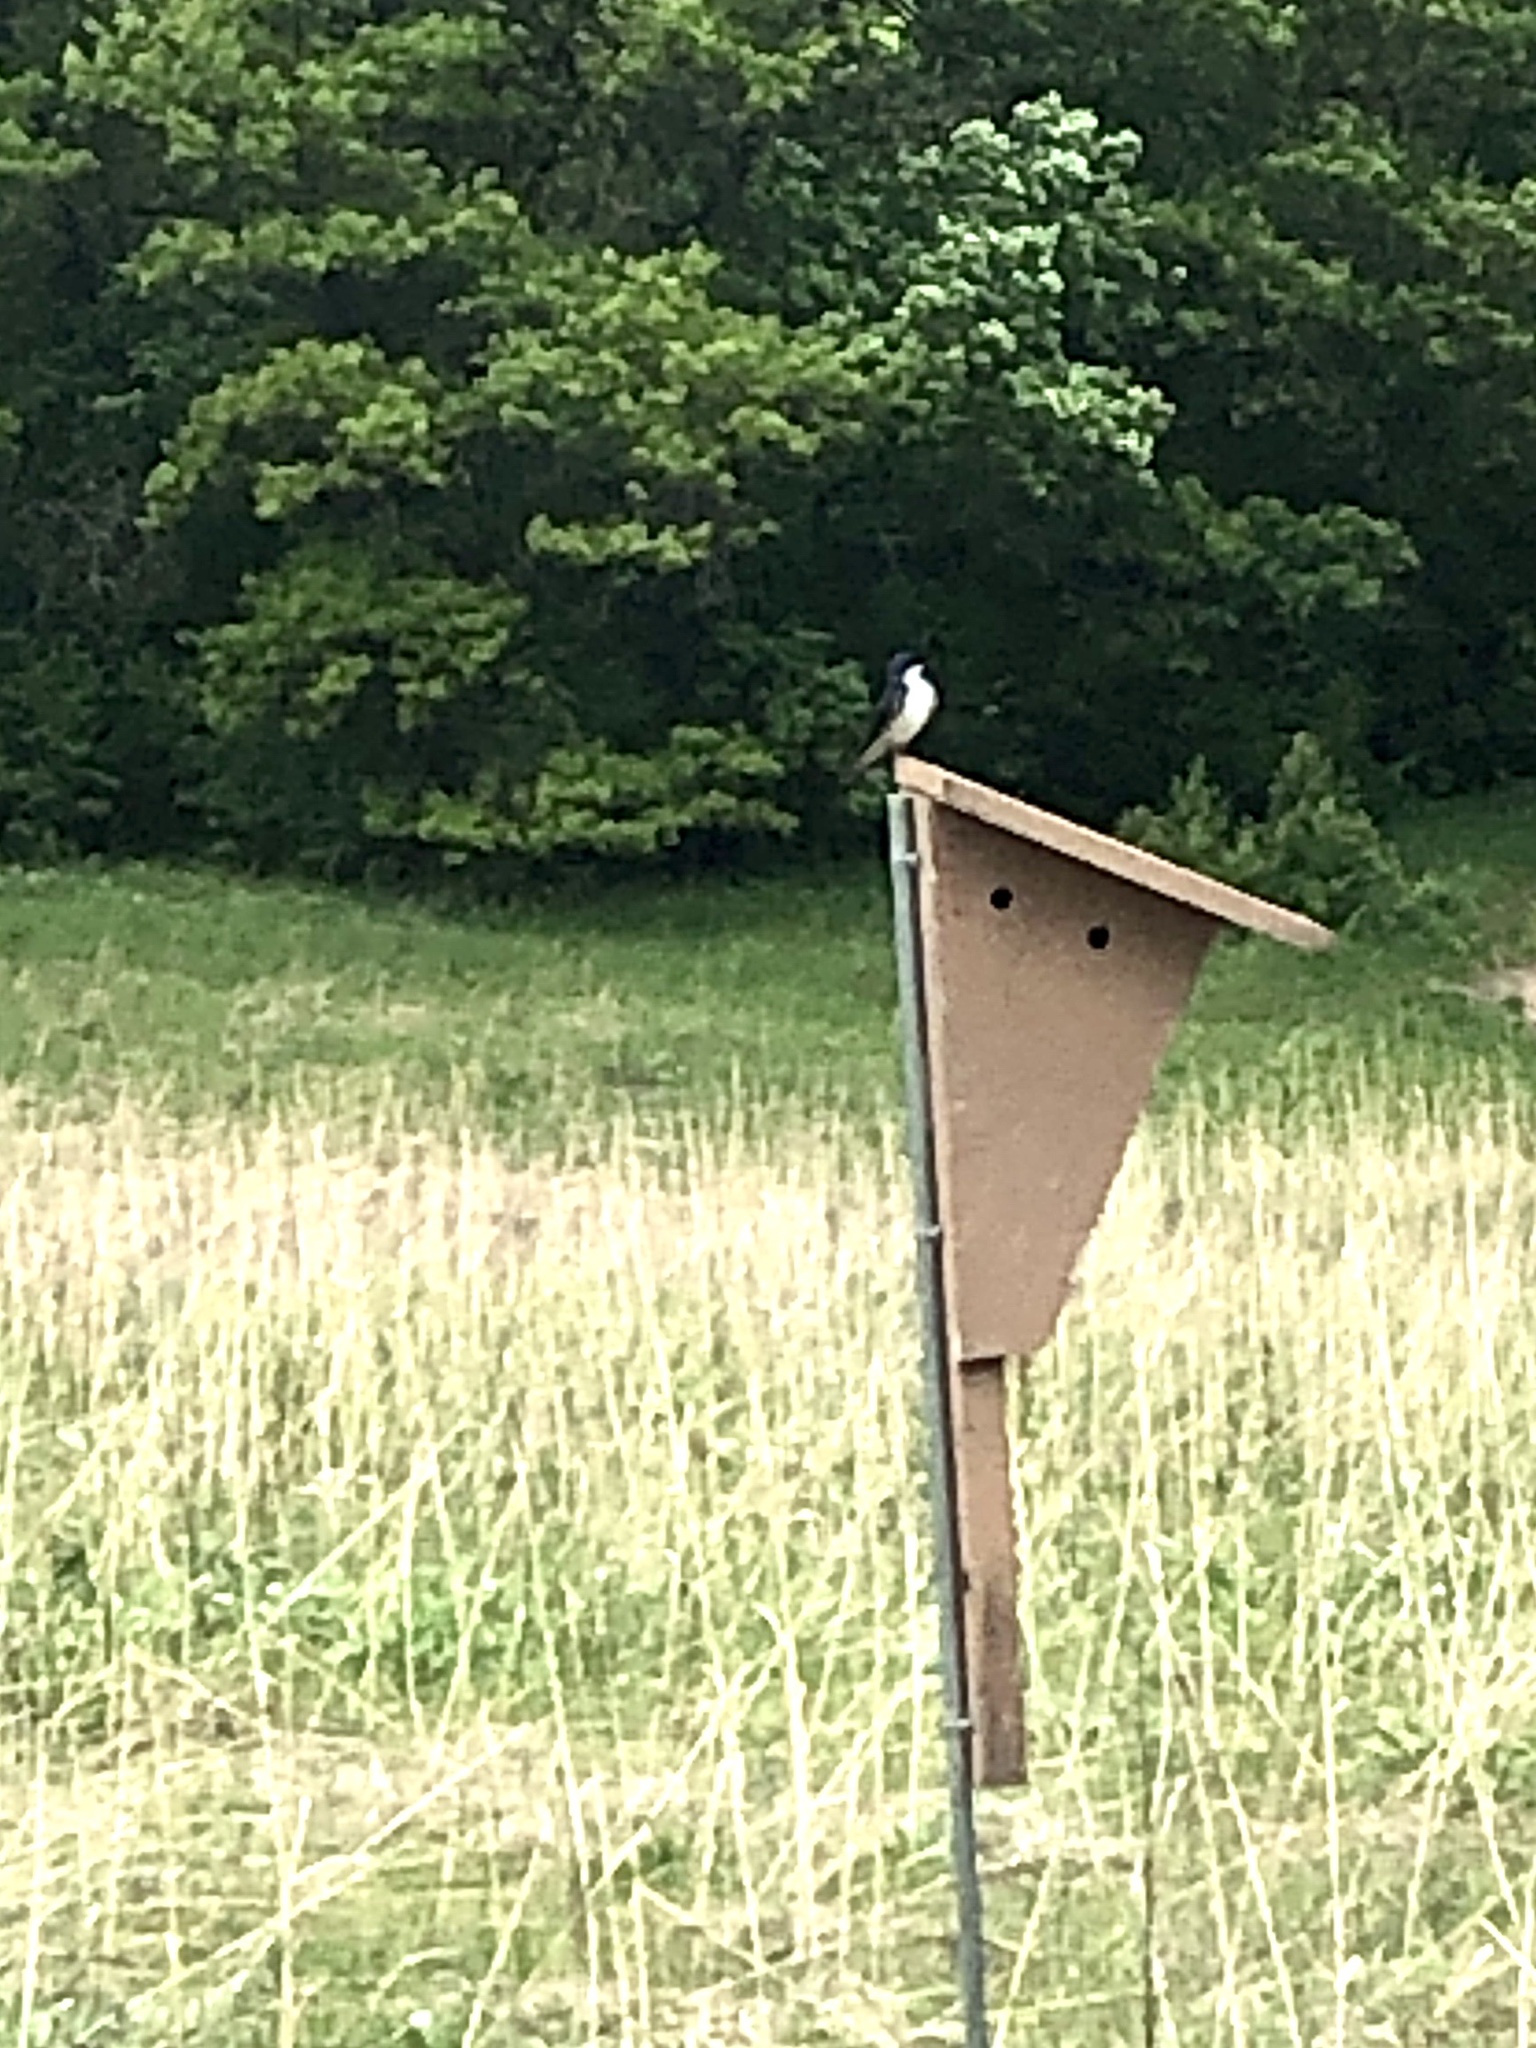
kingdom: Animalia
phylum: Chordata
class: Aves
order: Passeriformes
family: Hirundinidae
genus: Tachycineta
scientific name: Tachycineta bicolor
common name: Tree swallow
